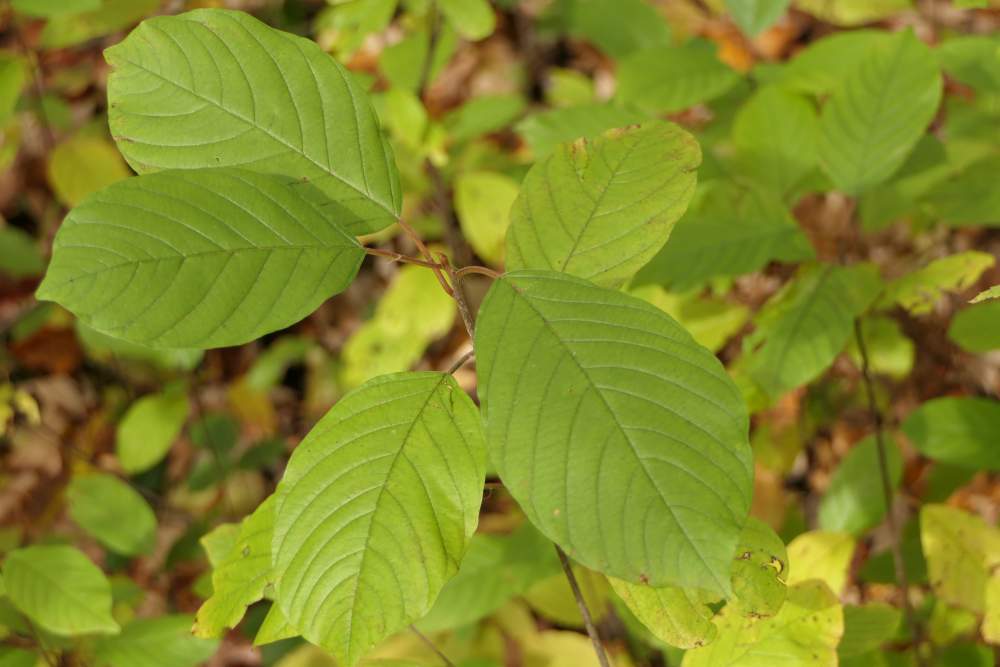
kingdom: Plantae
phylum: Tracheophyta
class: Magnoliopsida
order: Rosales
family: Rhamnaceae
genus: Frangula
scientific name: Frangula alnus
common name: Alder buckthorn
